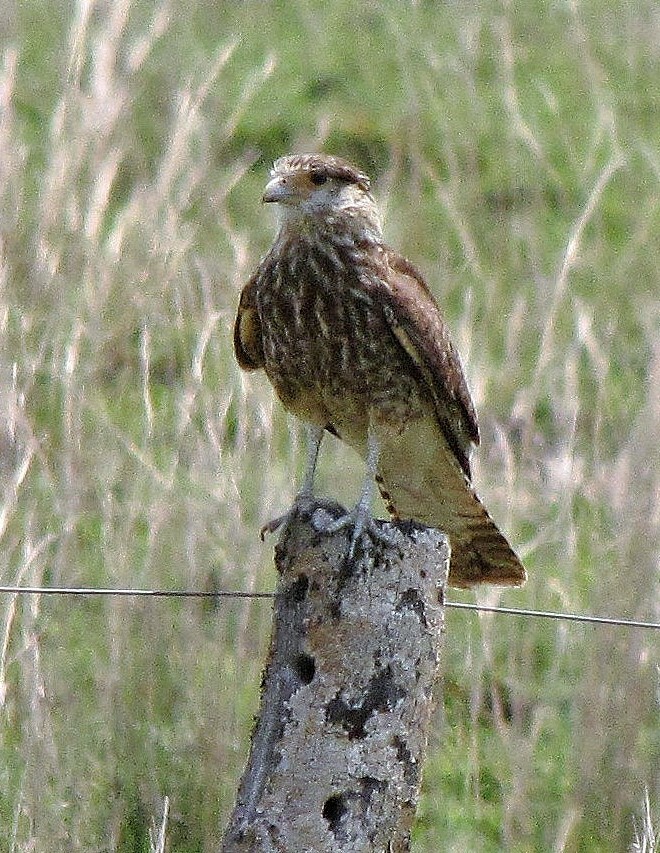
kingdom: Animalia
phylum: Chordata
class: Aves
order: Falconiformes
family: Falconidae
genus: Daptrius
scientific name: Daptrius
